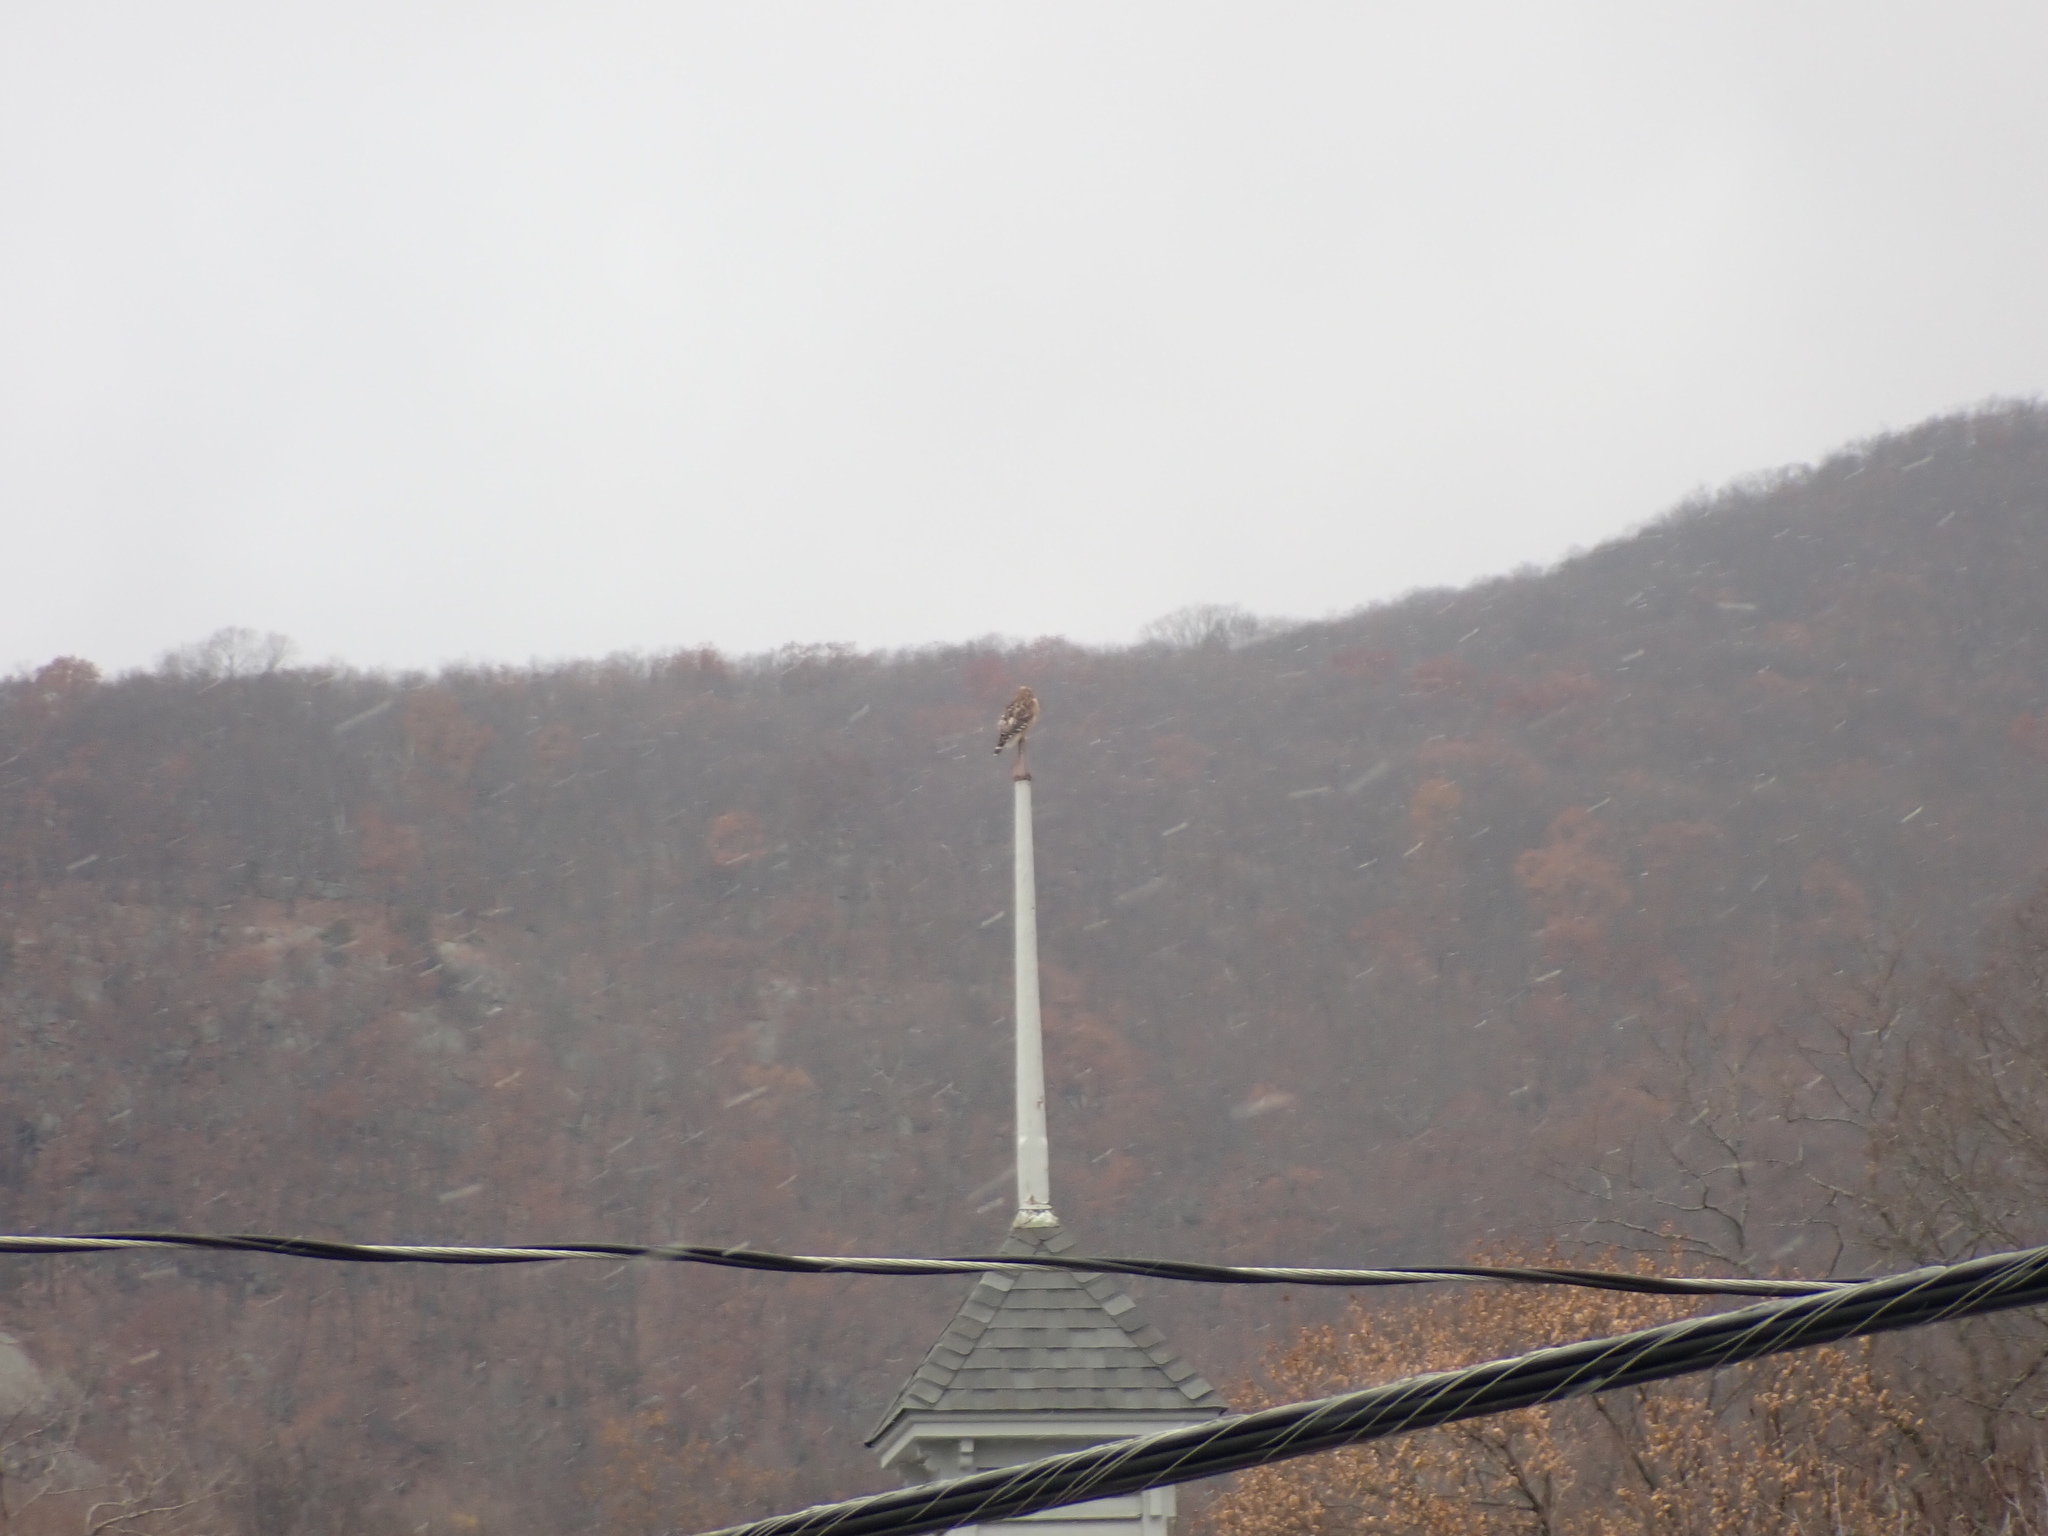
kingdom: Animalia
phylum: Chordata
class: Aves
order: Accipitriformes
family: Accipitridae
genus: Buteo
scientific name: Buteo lineatus
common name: Red-shouldered hawk
